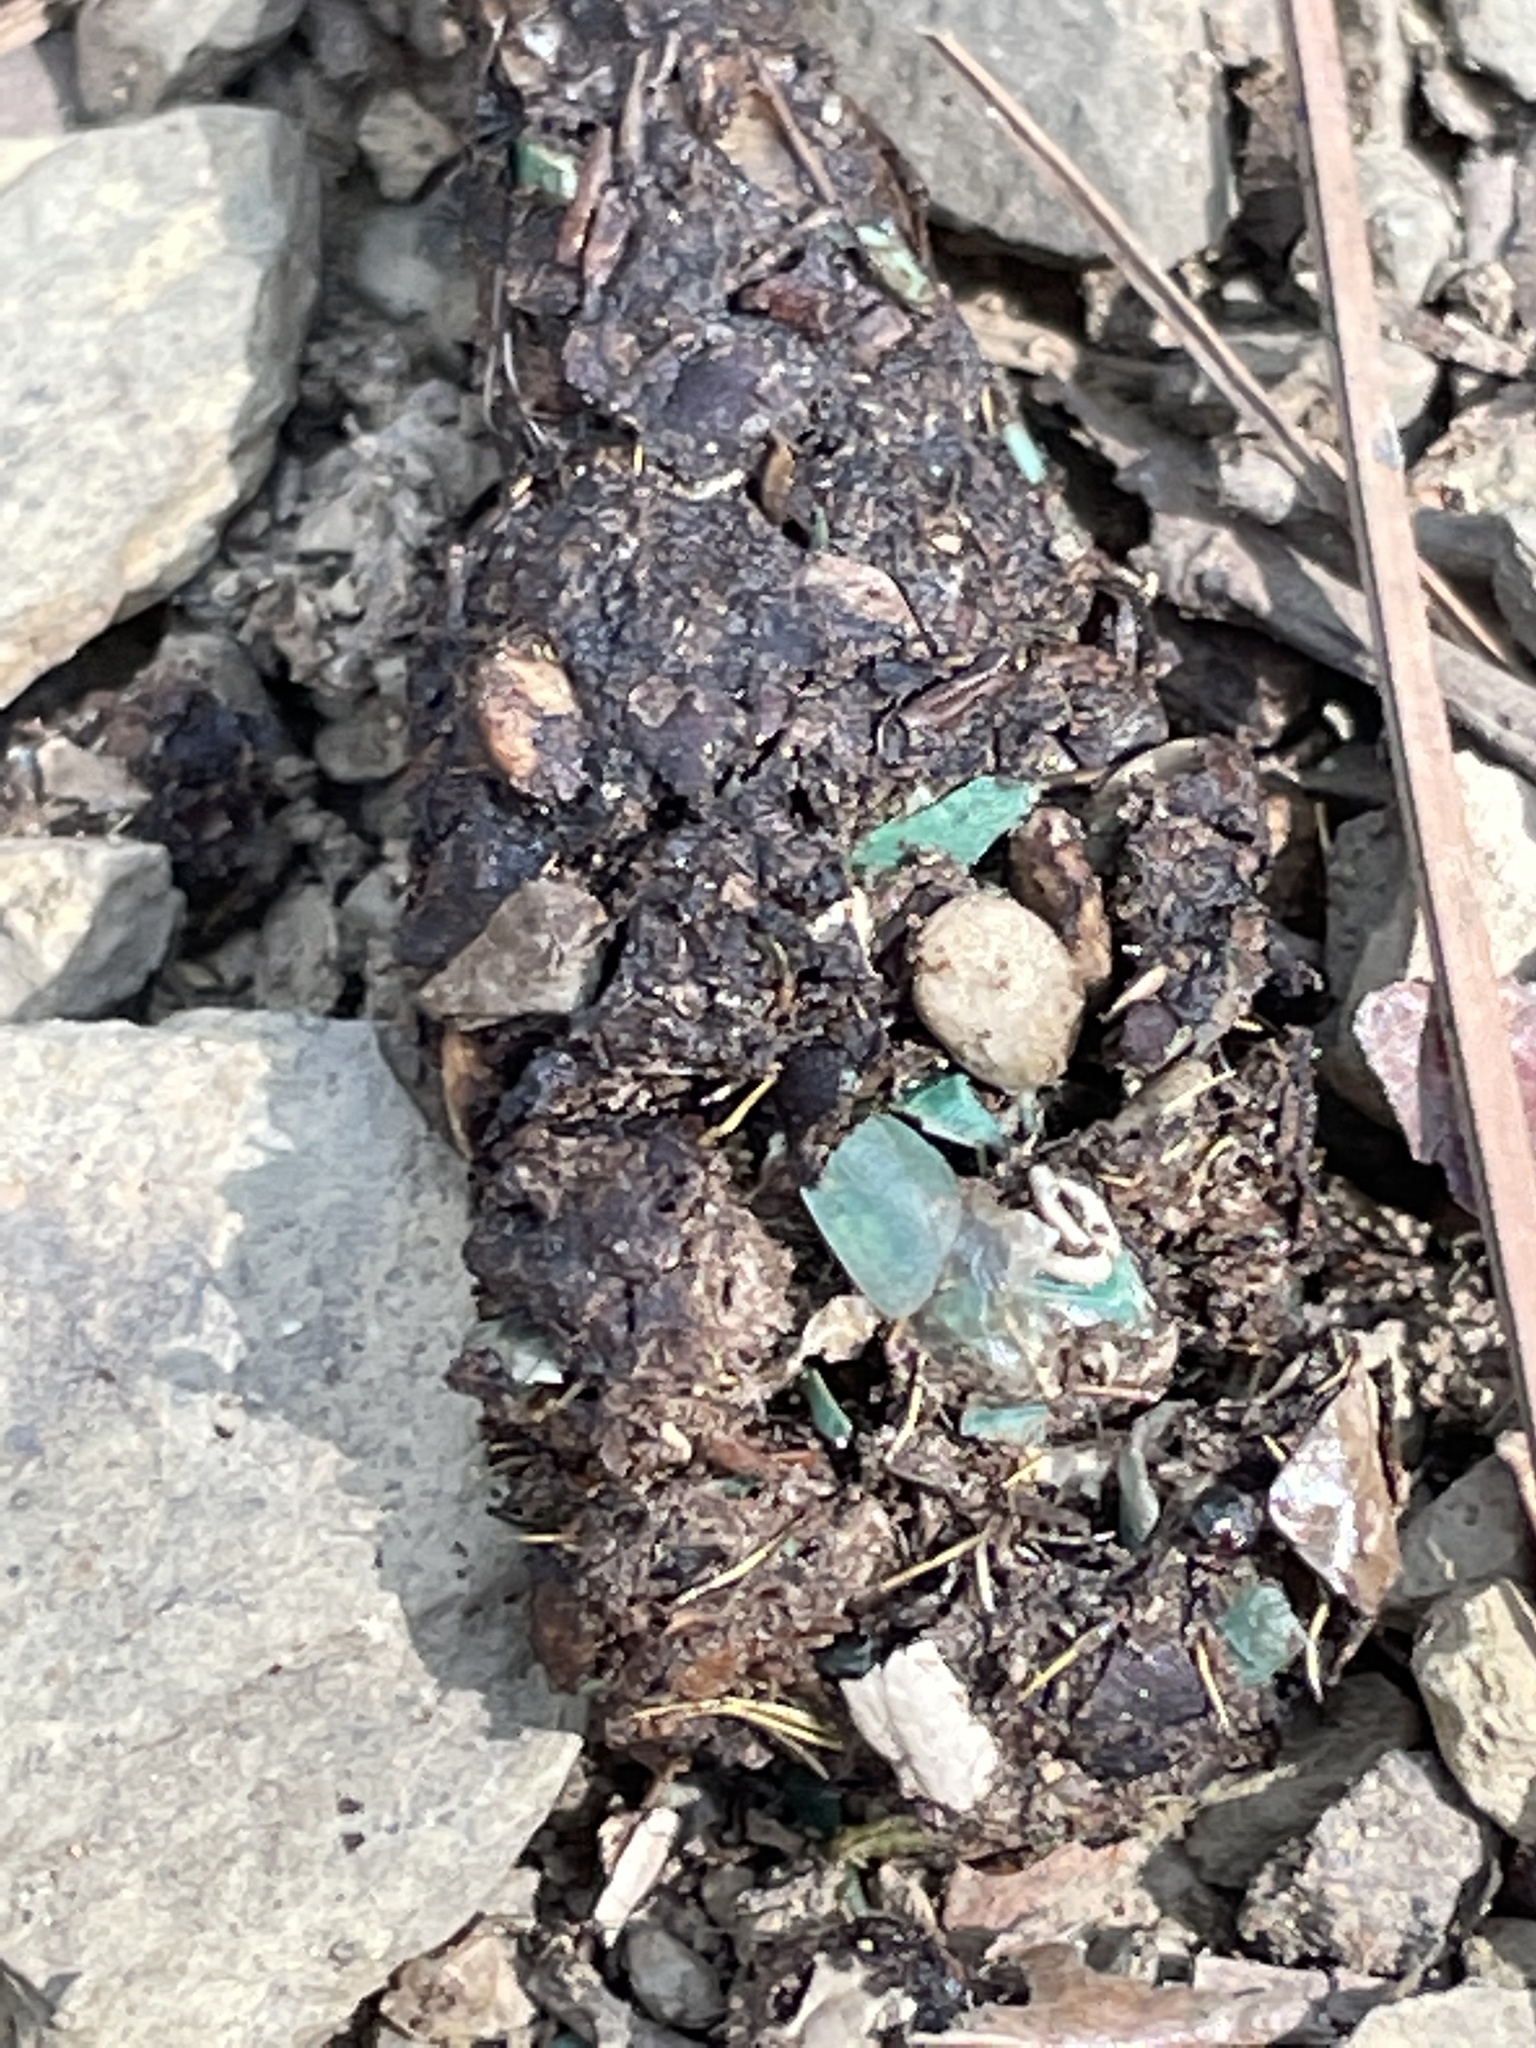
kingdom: Animalia
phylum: Chordata
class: Mammalia
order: Carnivora
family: Canidae
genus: Urocyon
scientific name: Urocyon cinereoargenteus
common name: Gray fox
